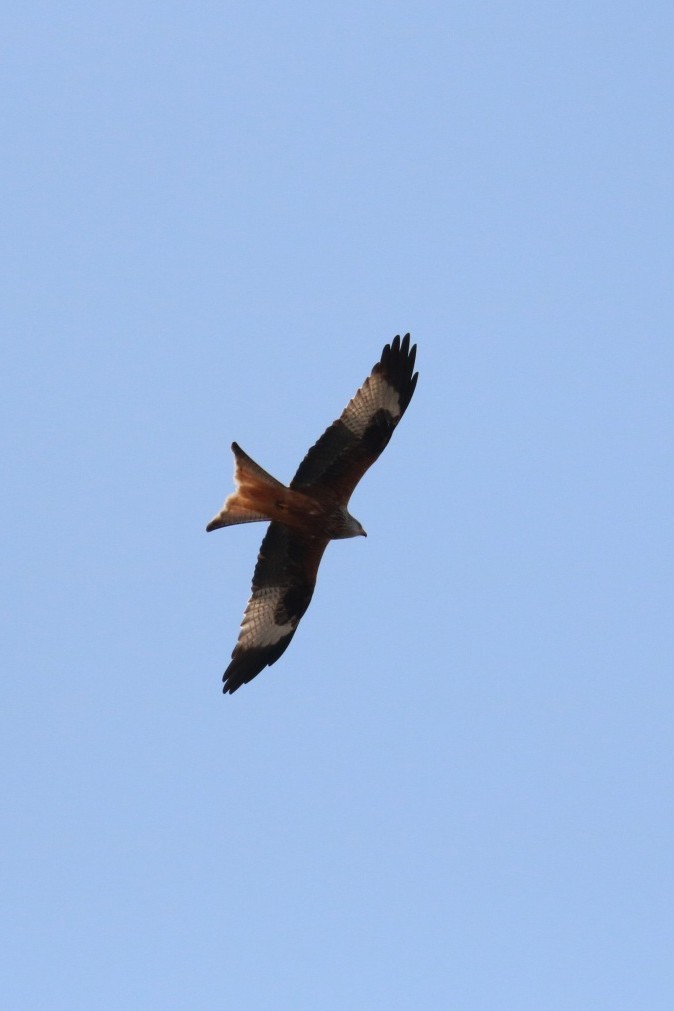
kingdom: Animalia
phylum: Chordata
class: Aves
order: Accipitriformes
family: Accipitridae
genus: Milvus
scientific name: Milvus milvus
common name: Red kite
